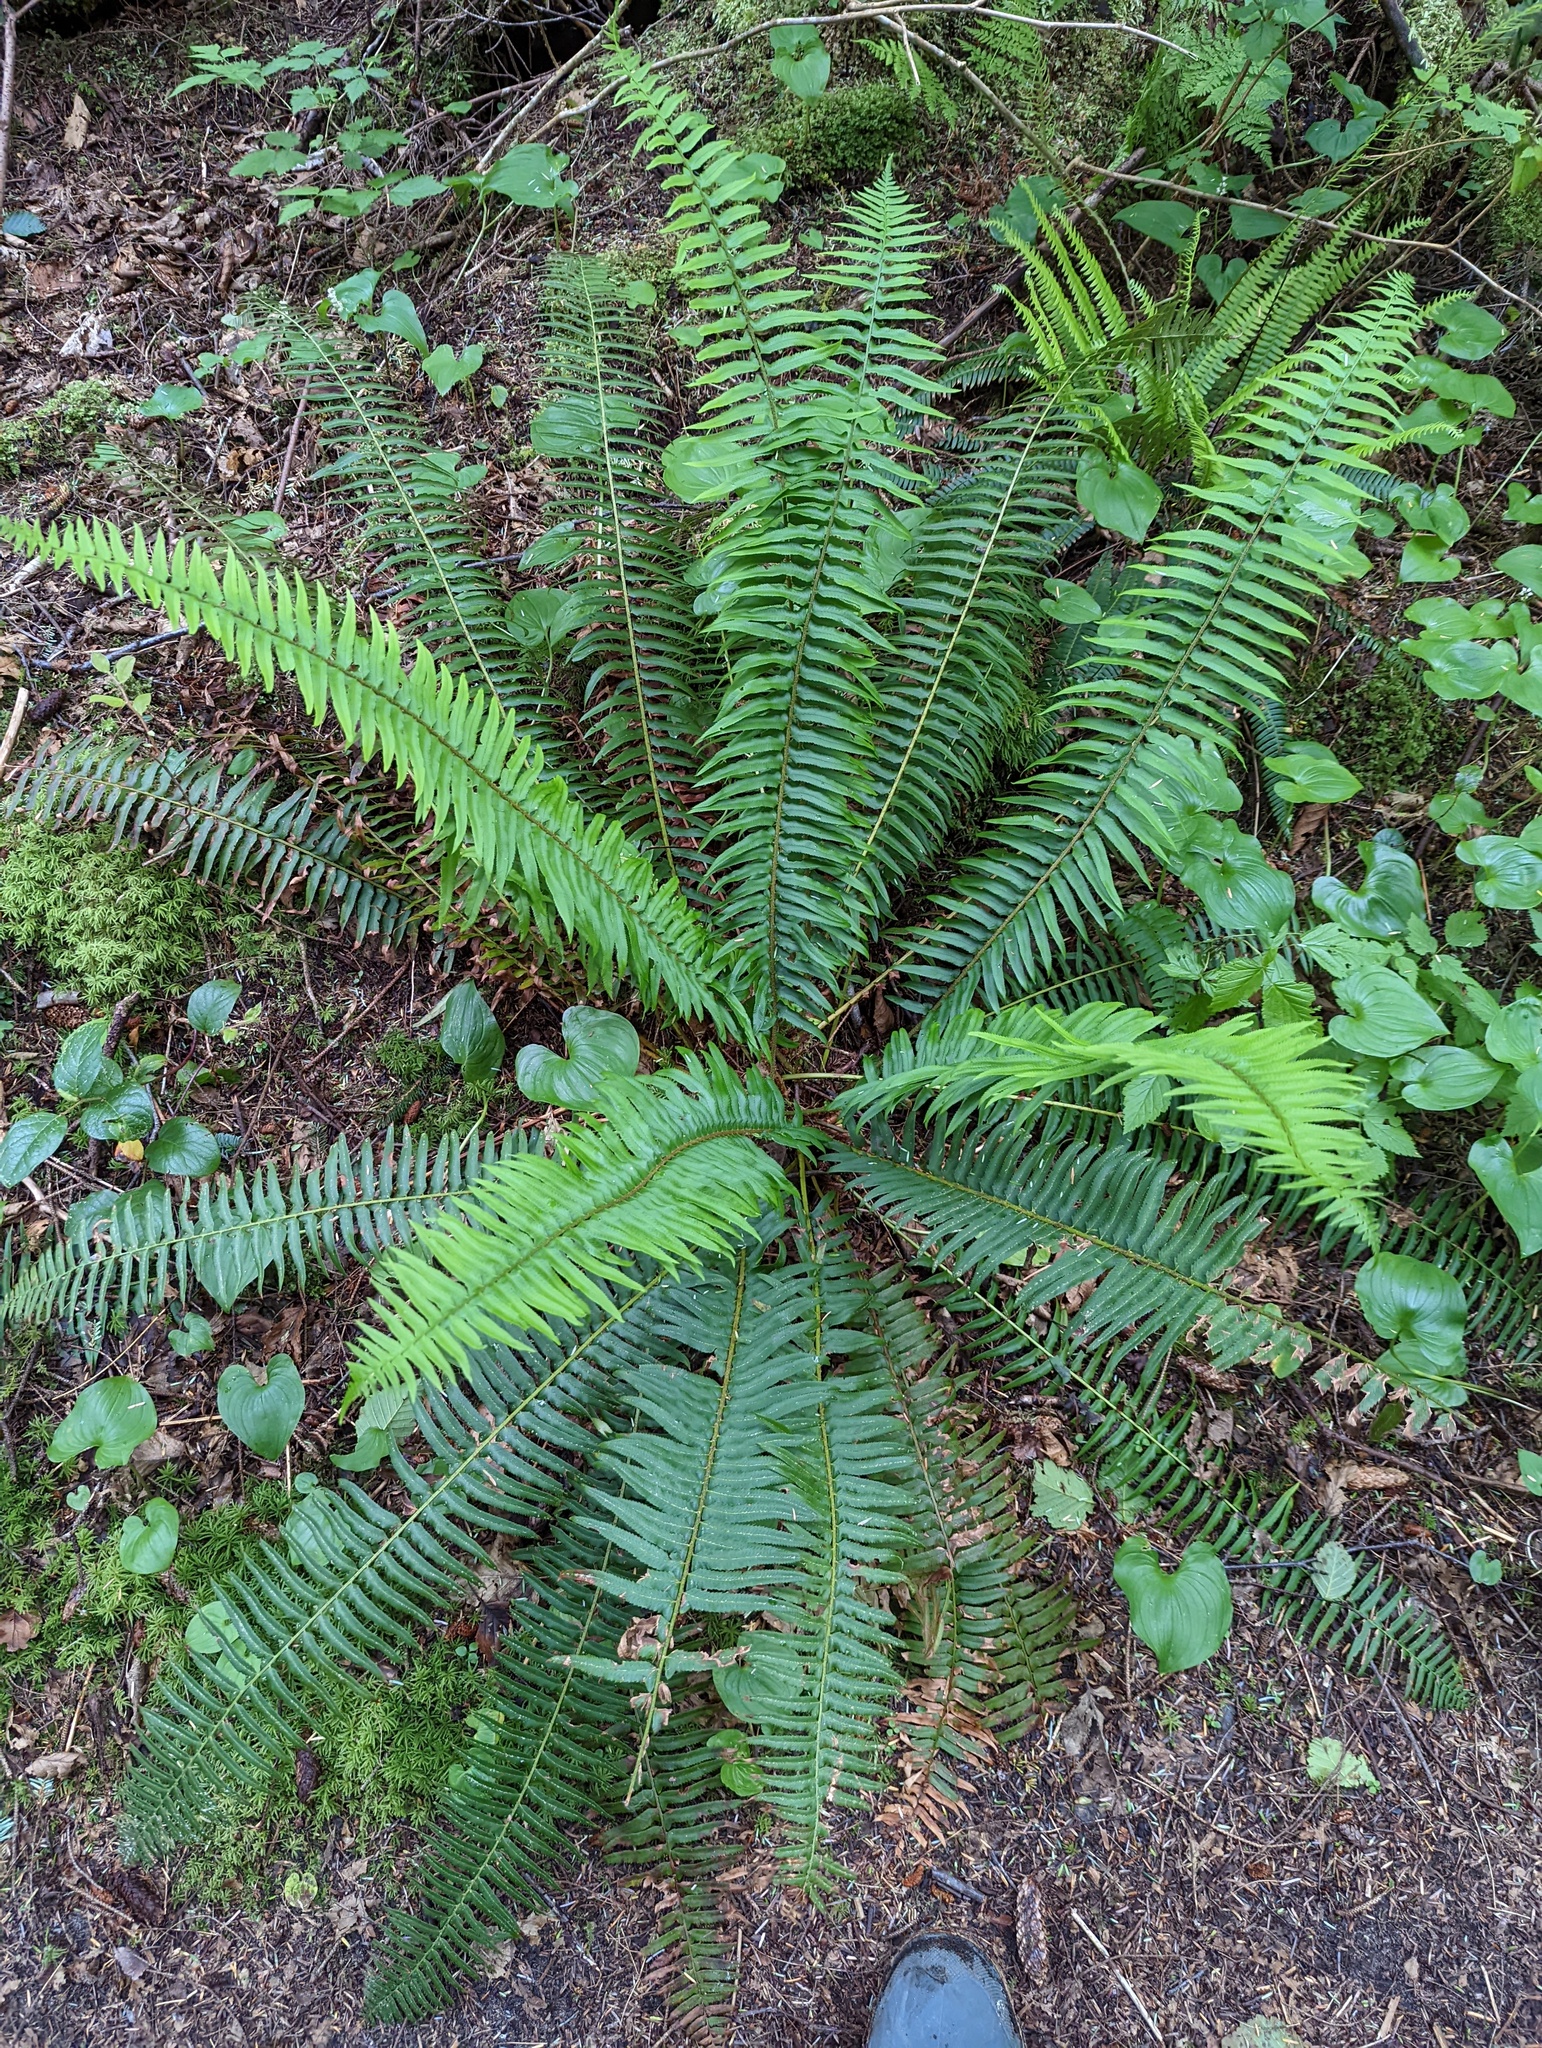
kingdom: Plantae
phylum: Tracheophyta
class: Polypodiopsida
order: Polypodiales
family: Dryopteridaceae
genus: Polystichum
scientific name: Polystichum munitum
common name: Western sword-fern
